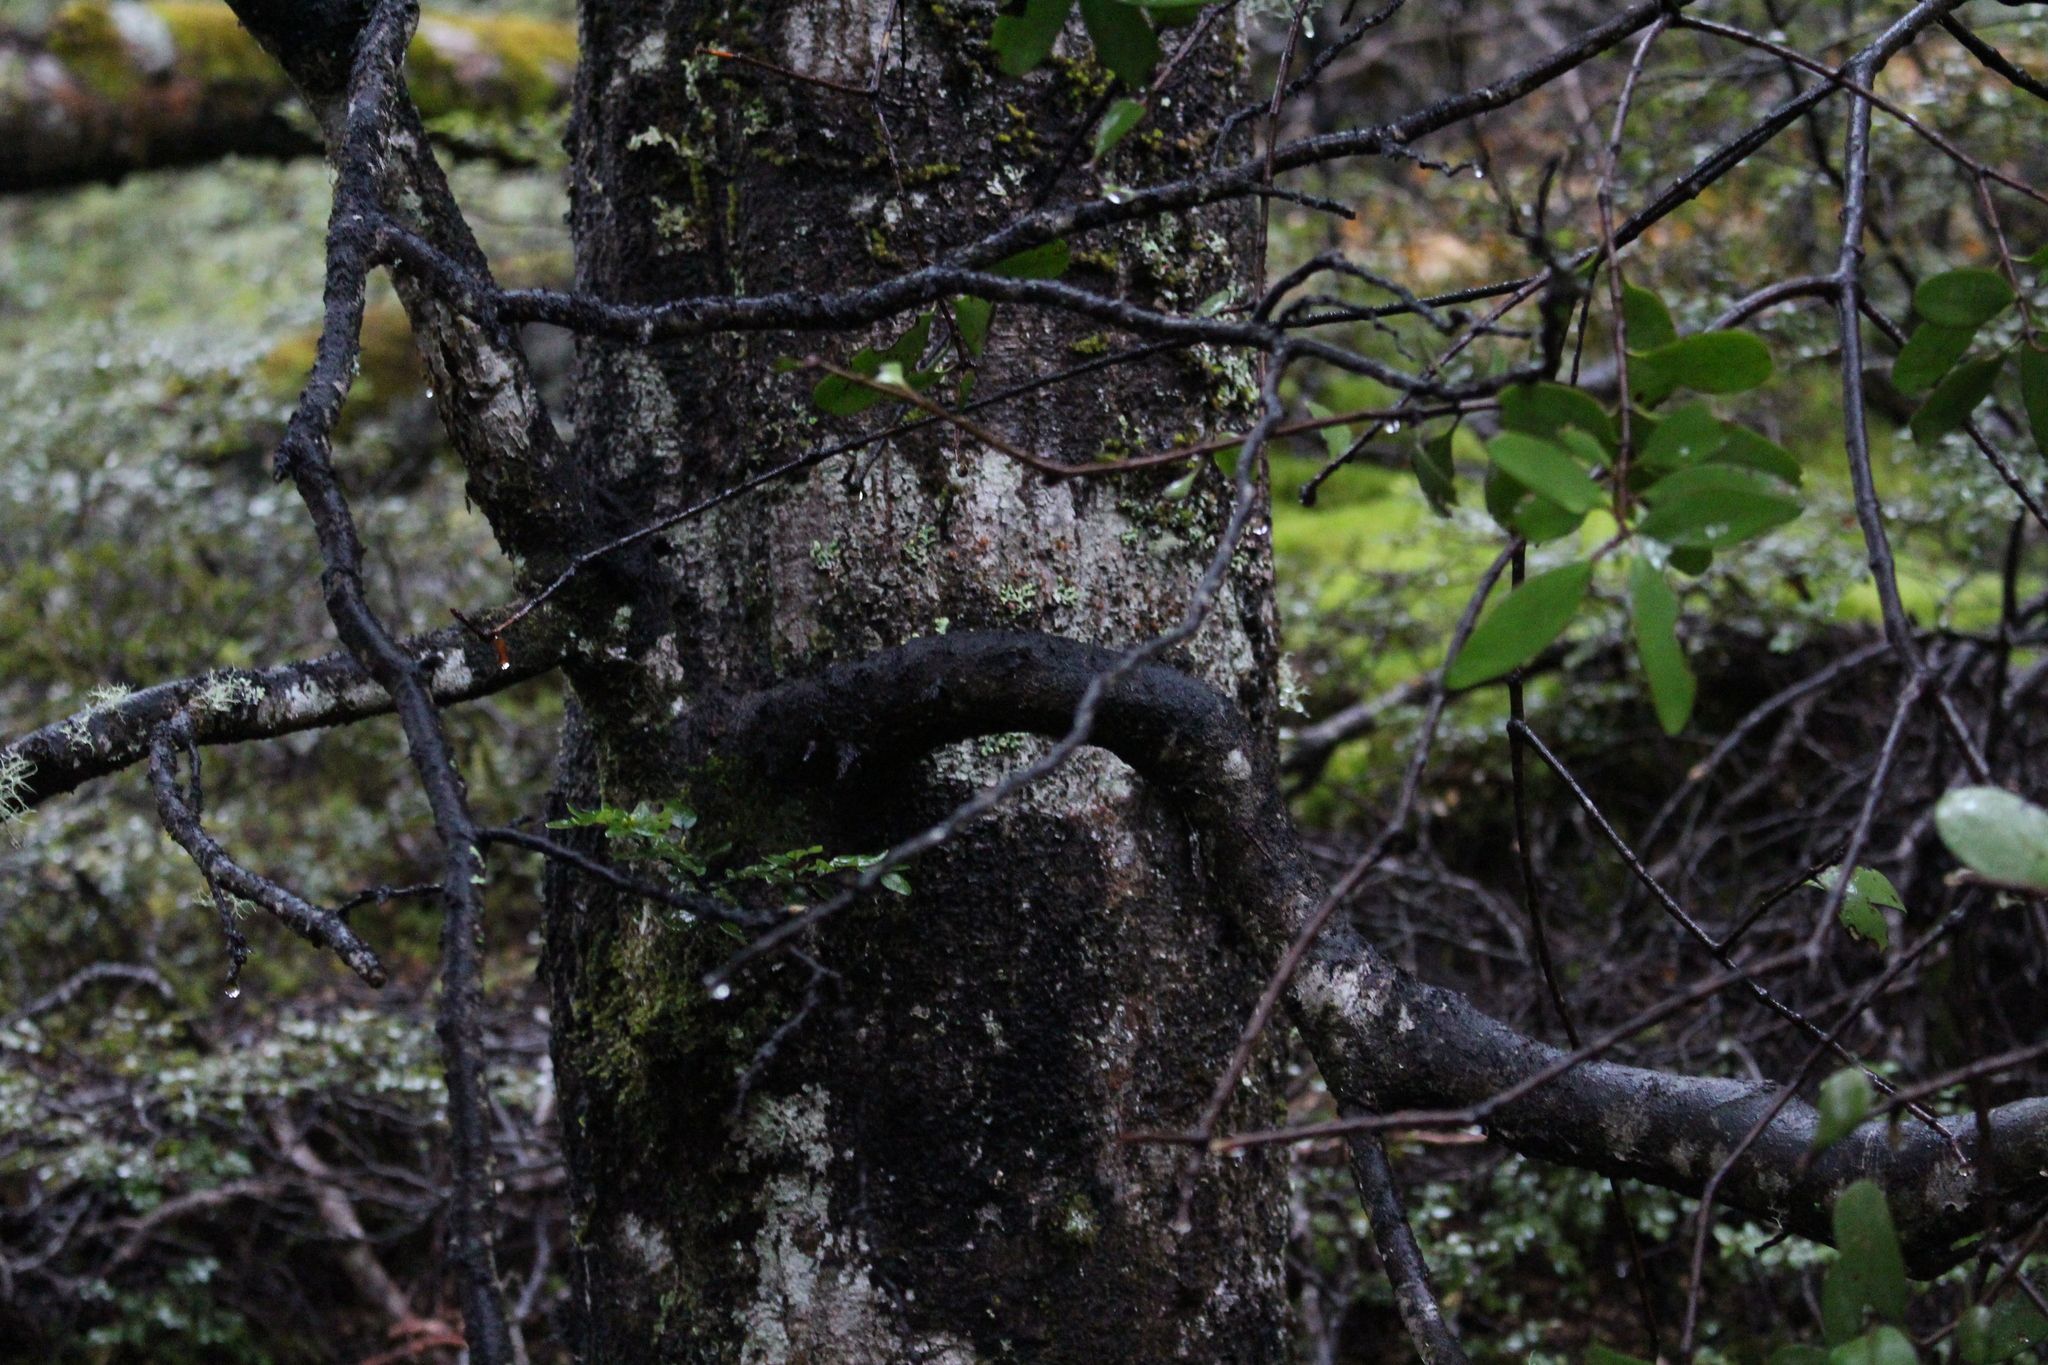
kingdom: Plantae
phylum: Tracheophyta
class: Magnoliopsida
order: Santalales
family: Loranthaceae
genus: Alepis
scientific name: Alepis flavida
